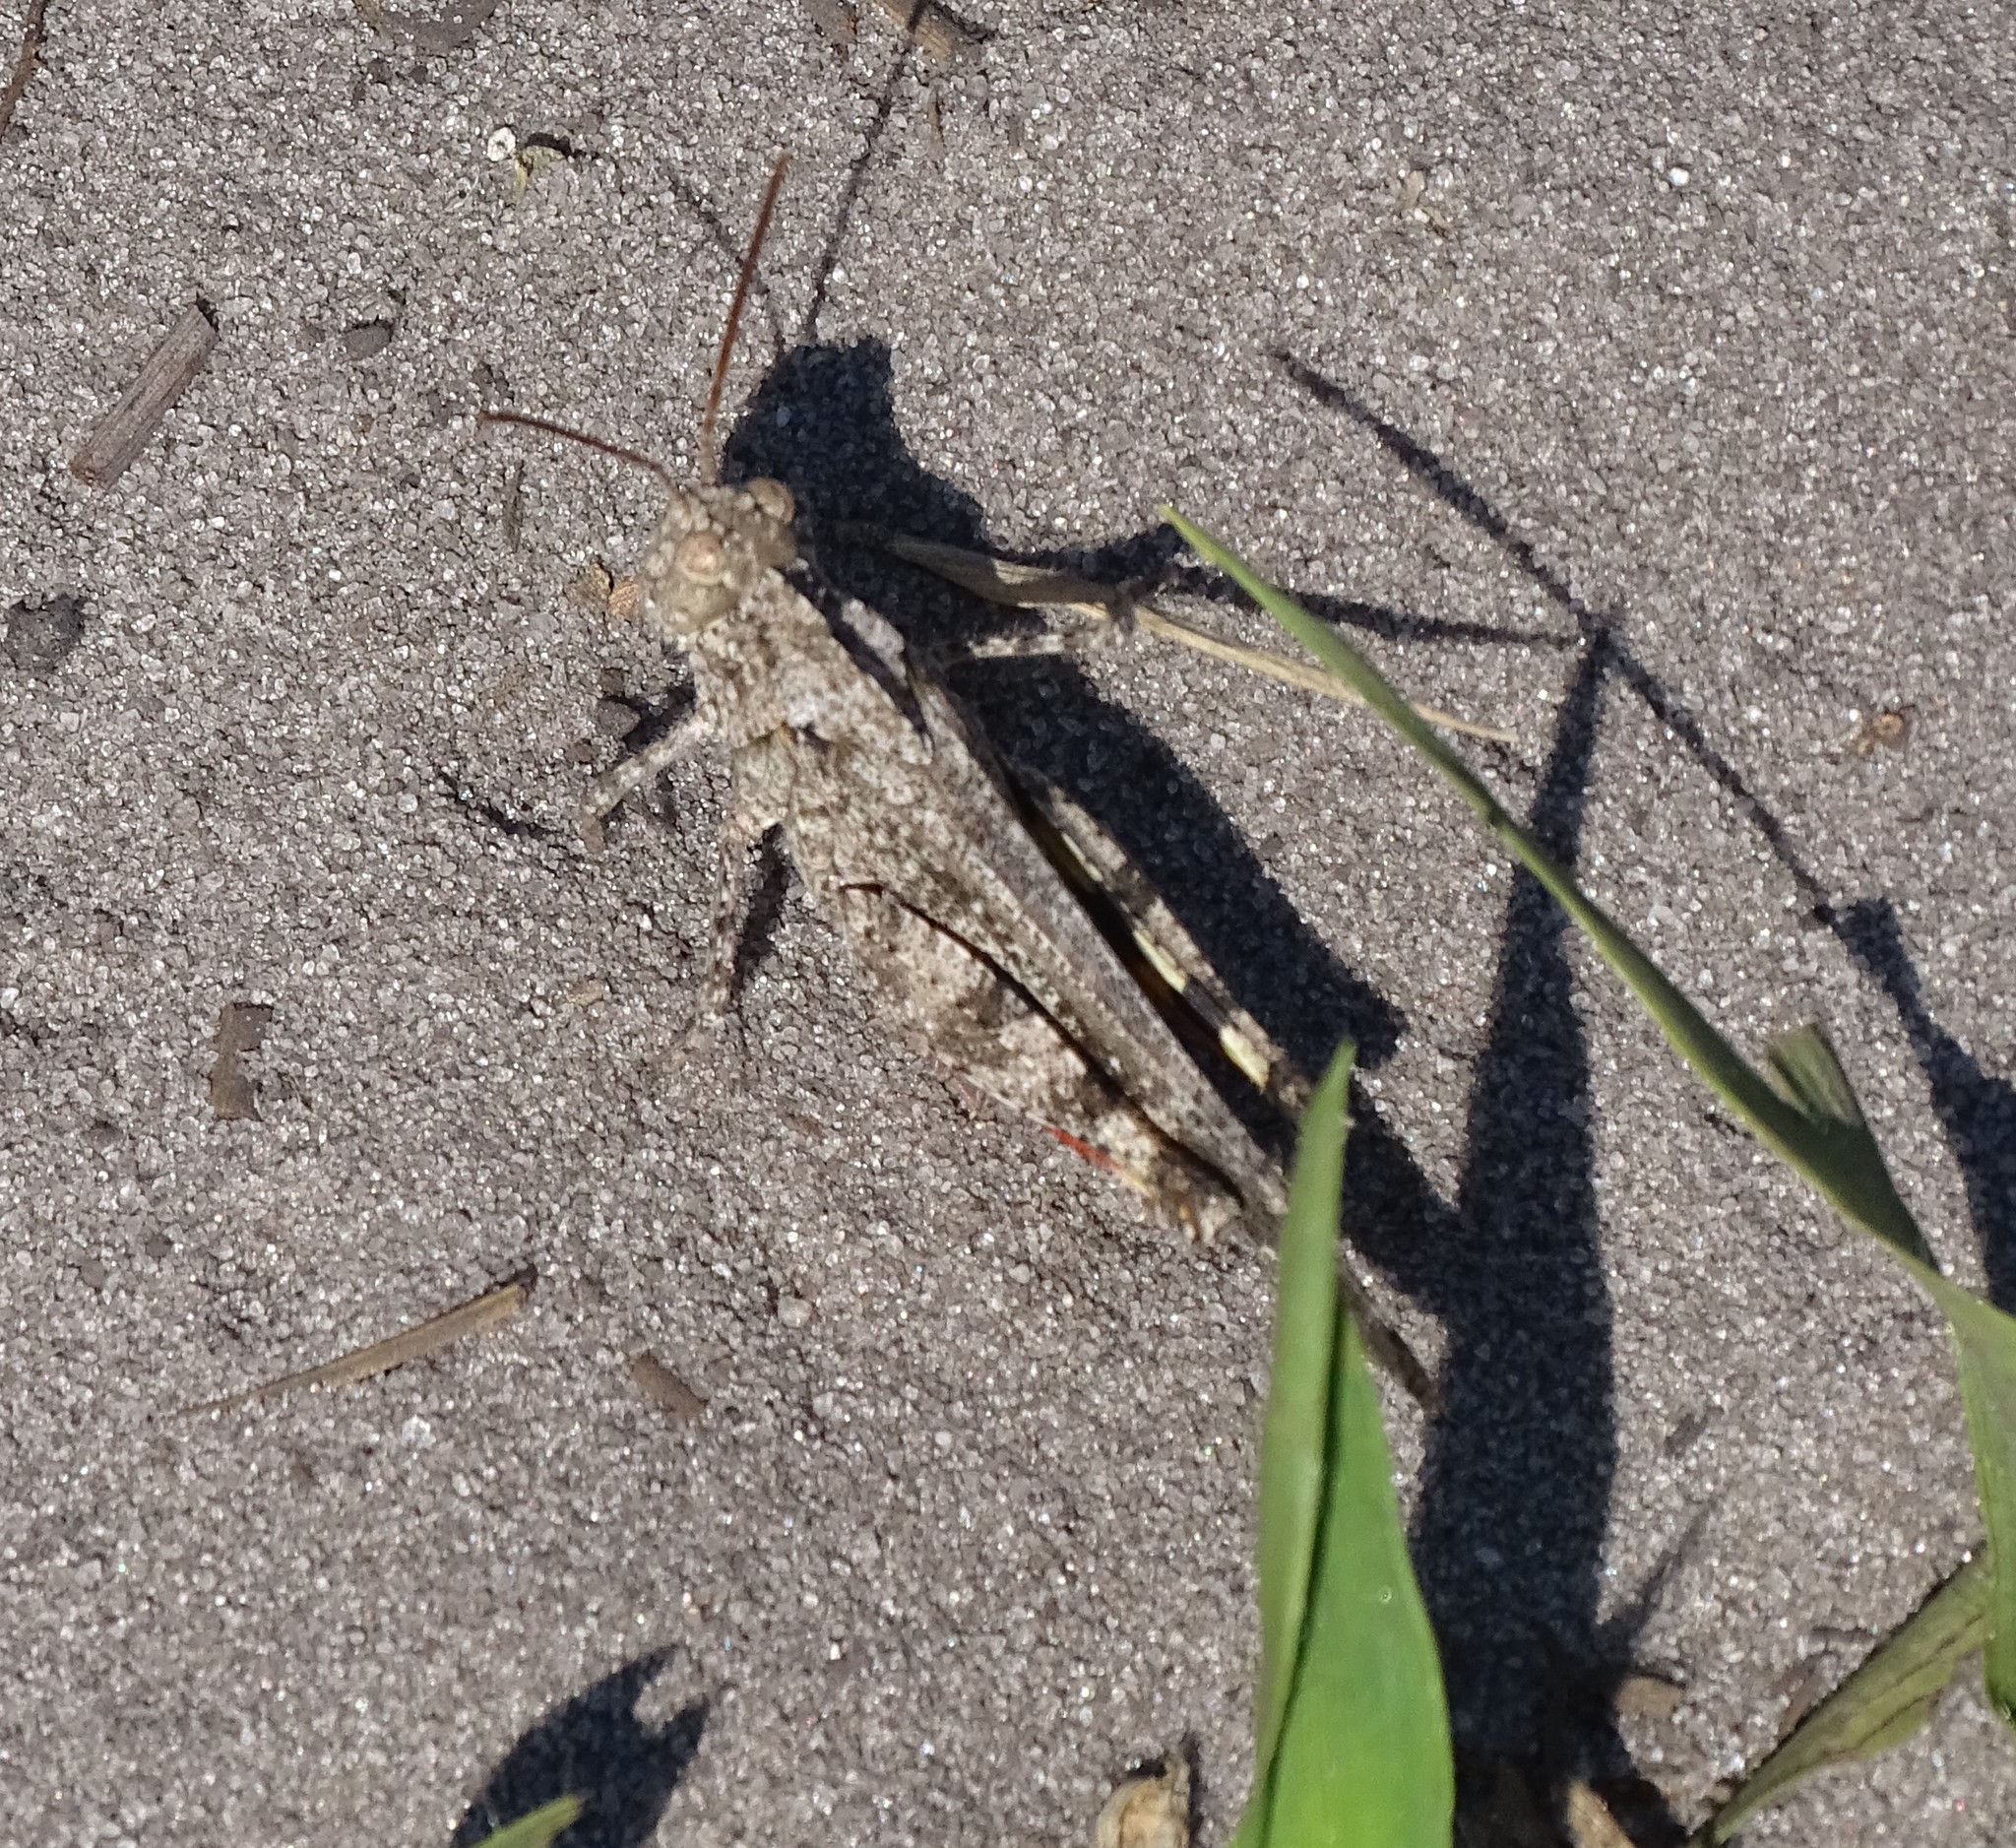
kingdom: Animalia
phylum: Arthropoda
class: Insecta
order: Orthoptera
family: Acrididae
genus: Spharagemon
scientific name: Spharagemon cristatum
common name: Ridgeback sand grasshopper
